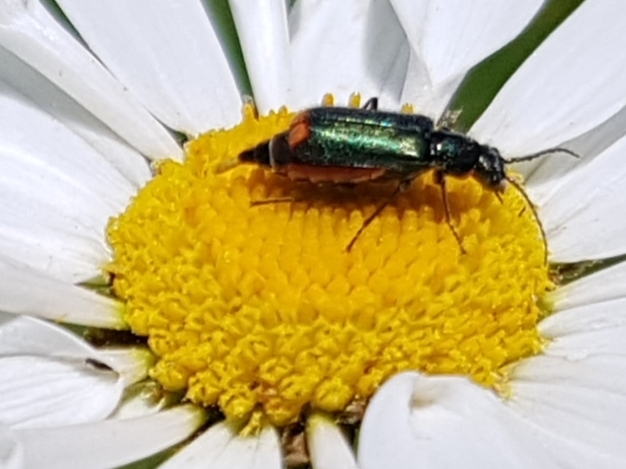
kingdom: Animalia
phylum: Arthropoda
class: Insecta
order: Coleoptera
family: Melyridae
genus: Malachius
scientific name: Malachius bipustulatus
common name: Malachite beetle
